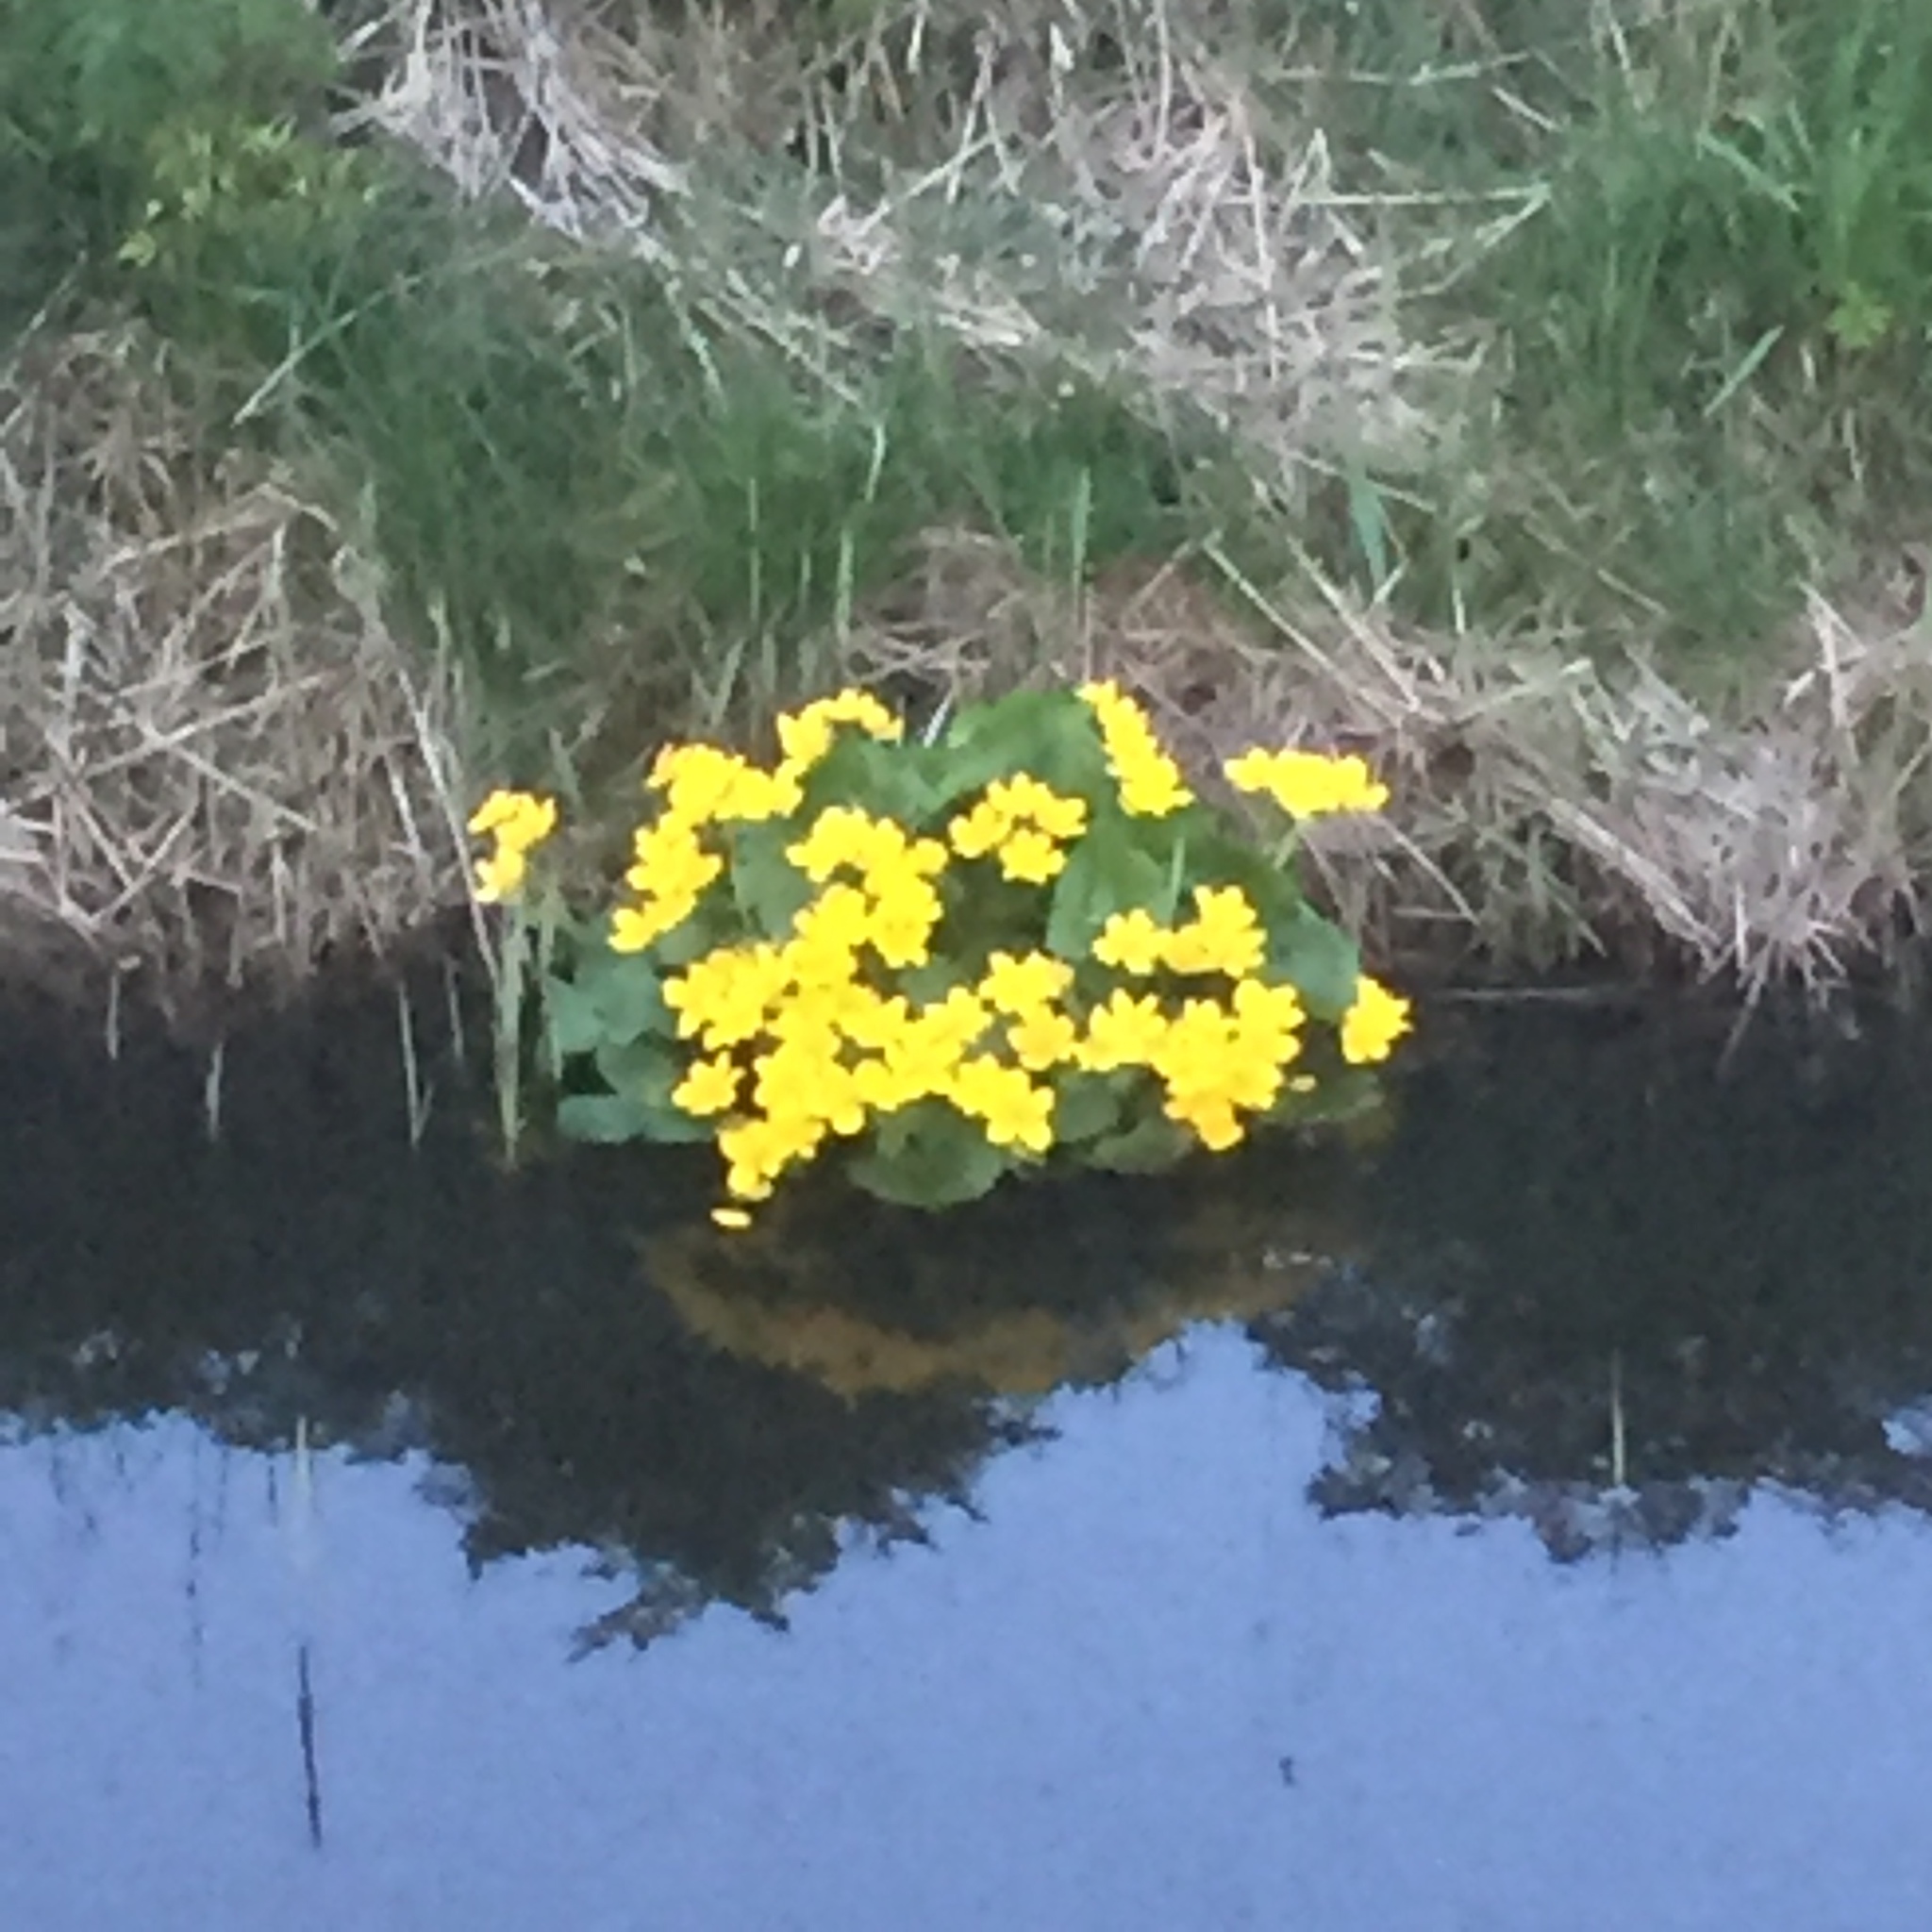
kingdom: Plantae
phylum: Tracheophyta
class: Magnoliopsida
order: Ranunculales
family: Ranunculaceae
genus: Caltha
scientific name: Caltha palustris
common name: Marsh marigold
